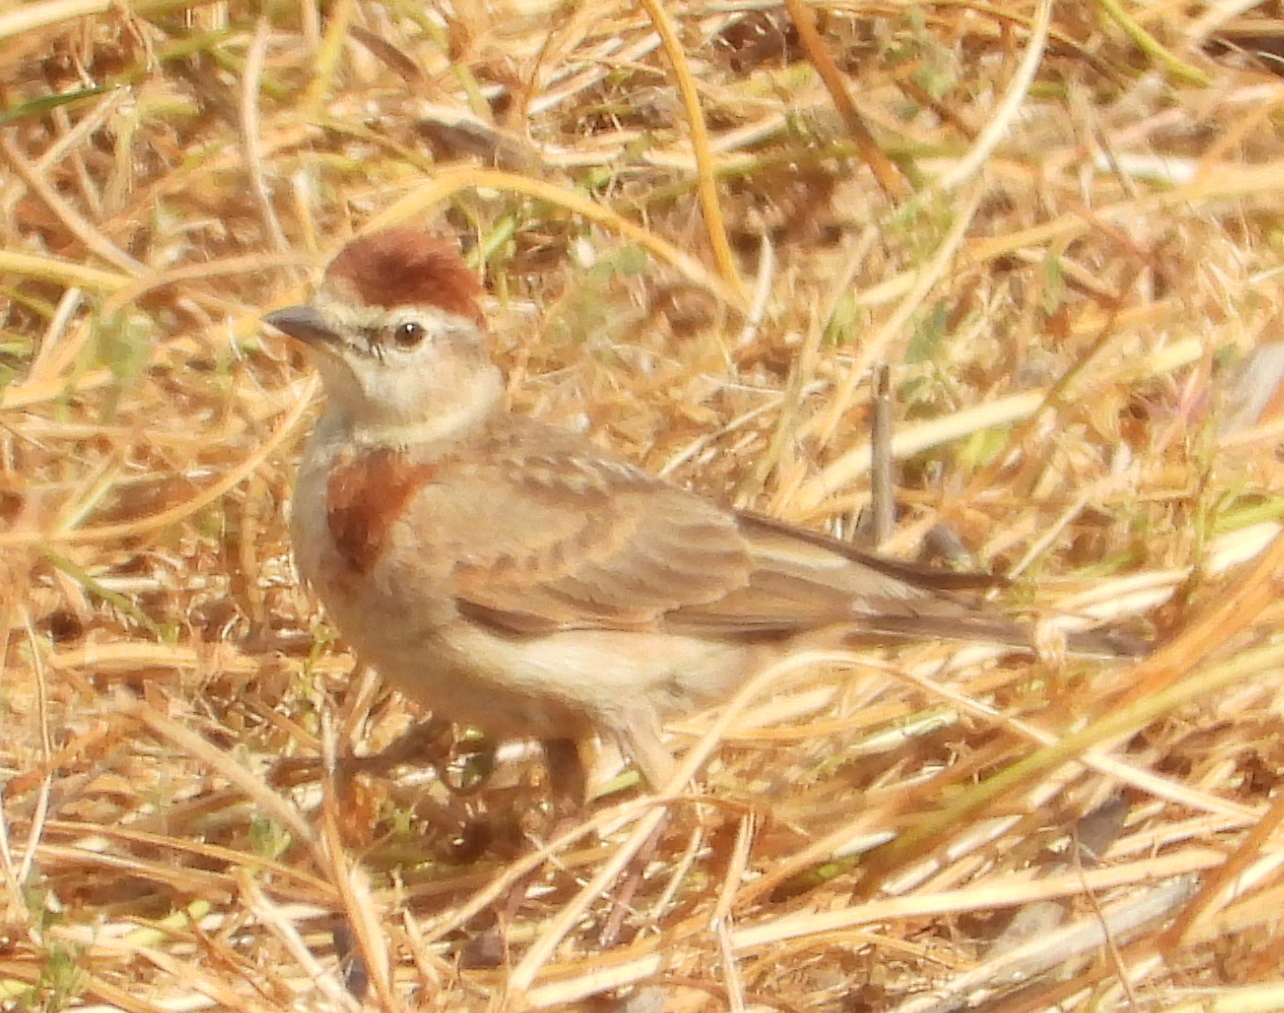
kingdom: Animalia
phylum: Chordata
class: Aves
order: Passeriformes
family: Alaudidae
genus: Calandrella
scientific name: Calandrella cinerea
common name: Red-capped lark
